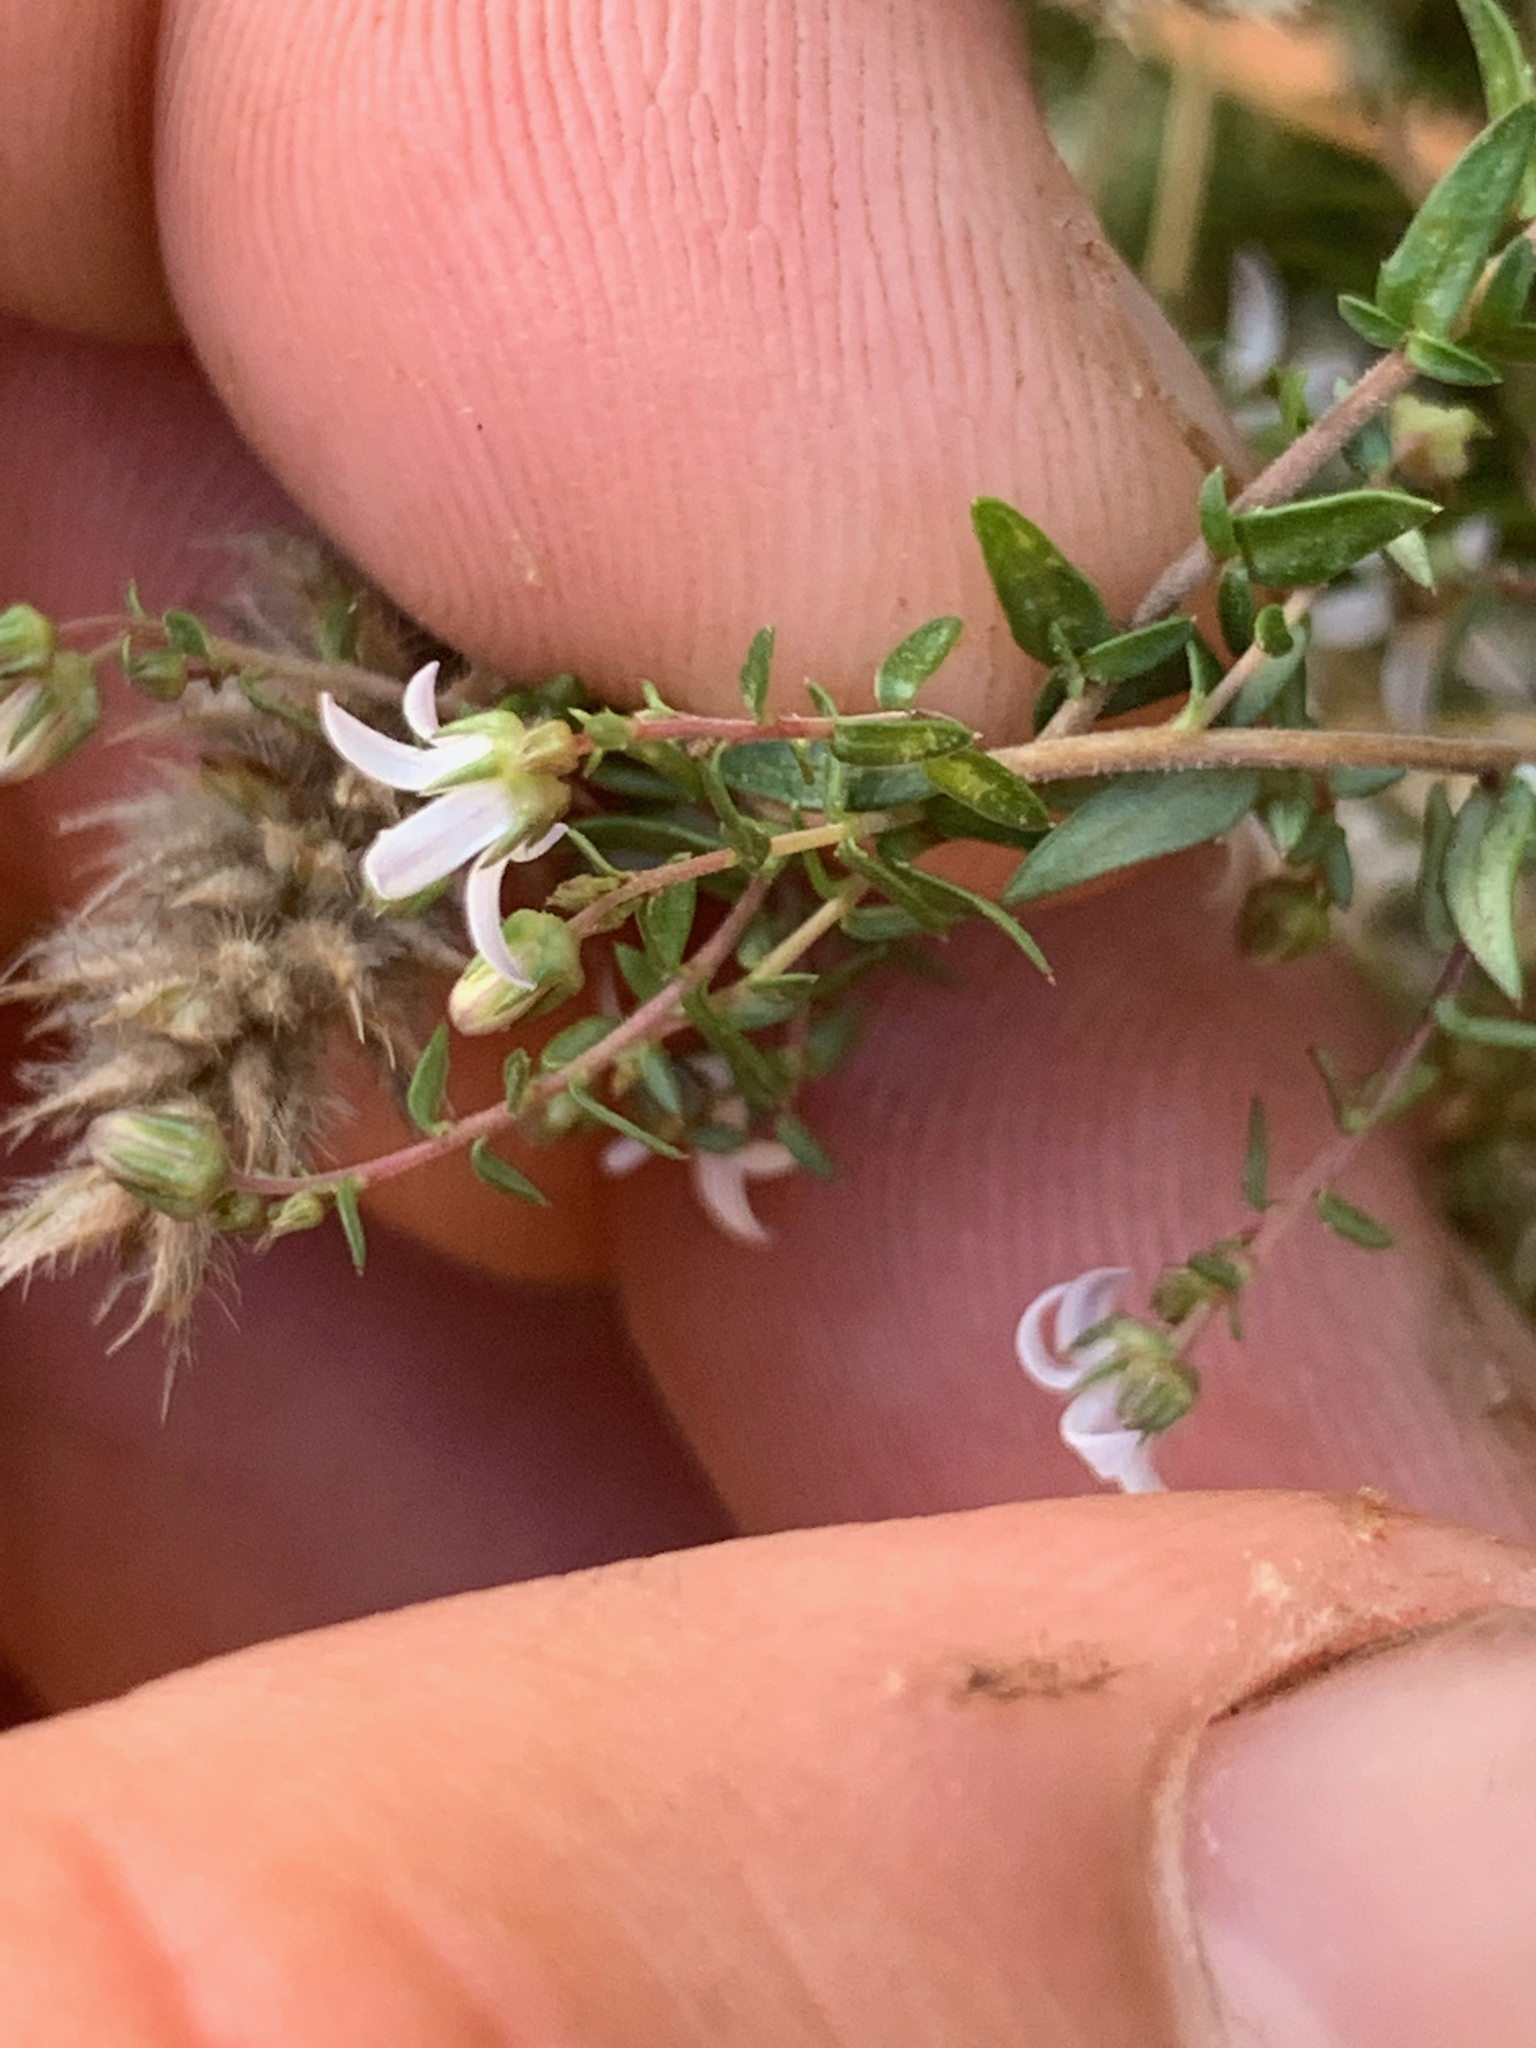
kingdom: Plantae
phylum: Tracheophyta
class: Magnoliopsida
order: Asterales
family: Campanulaceae
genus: Wahlenbergia
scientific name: Wahlenbergia parvifolia
